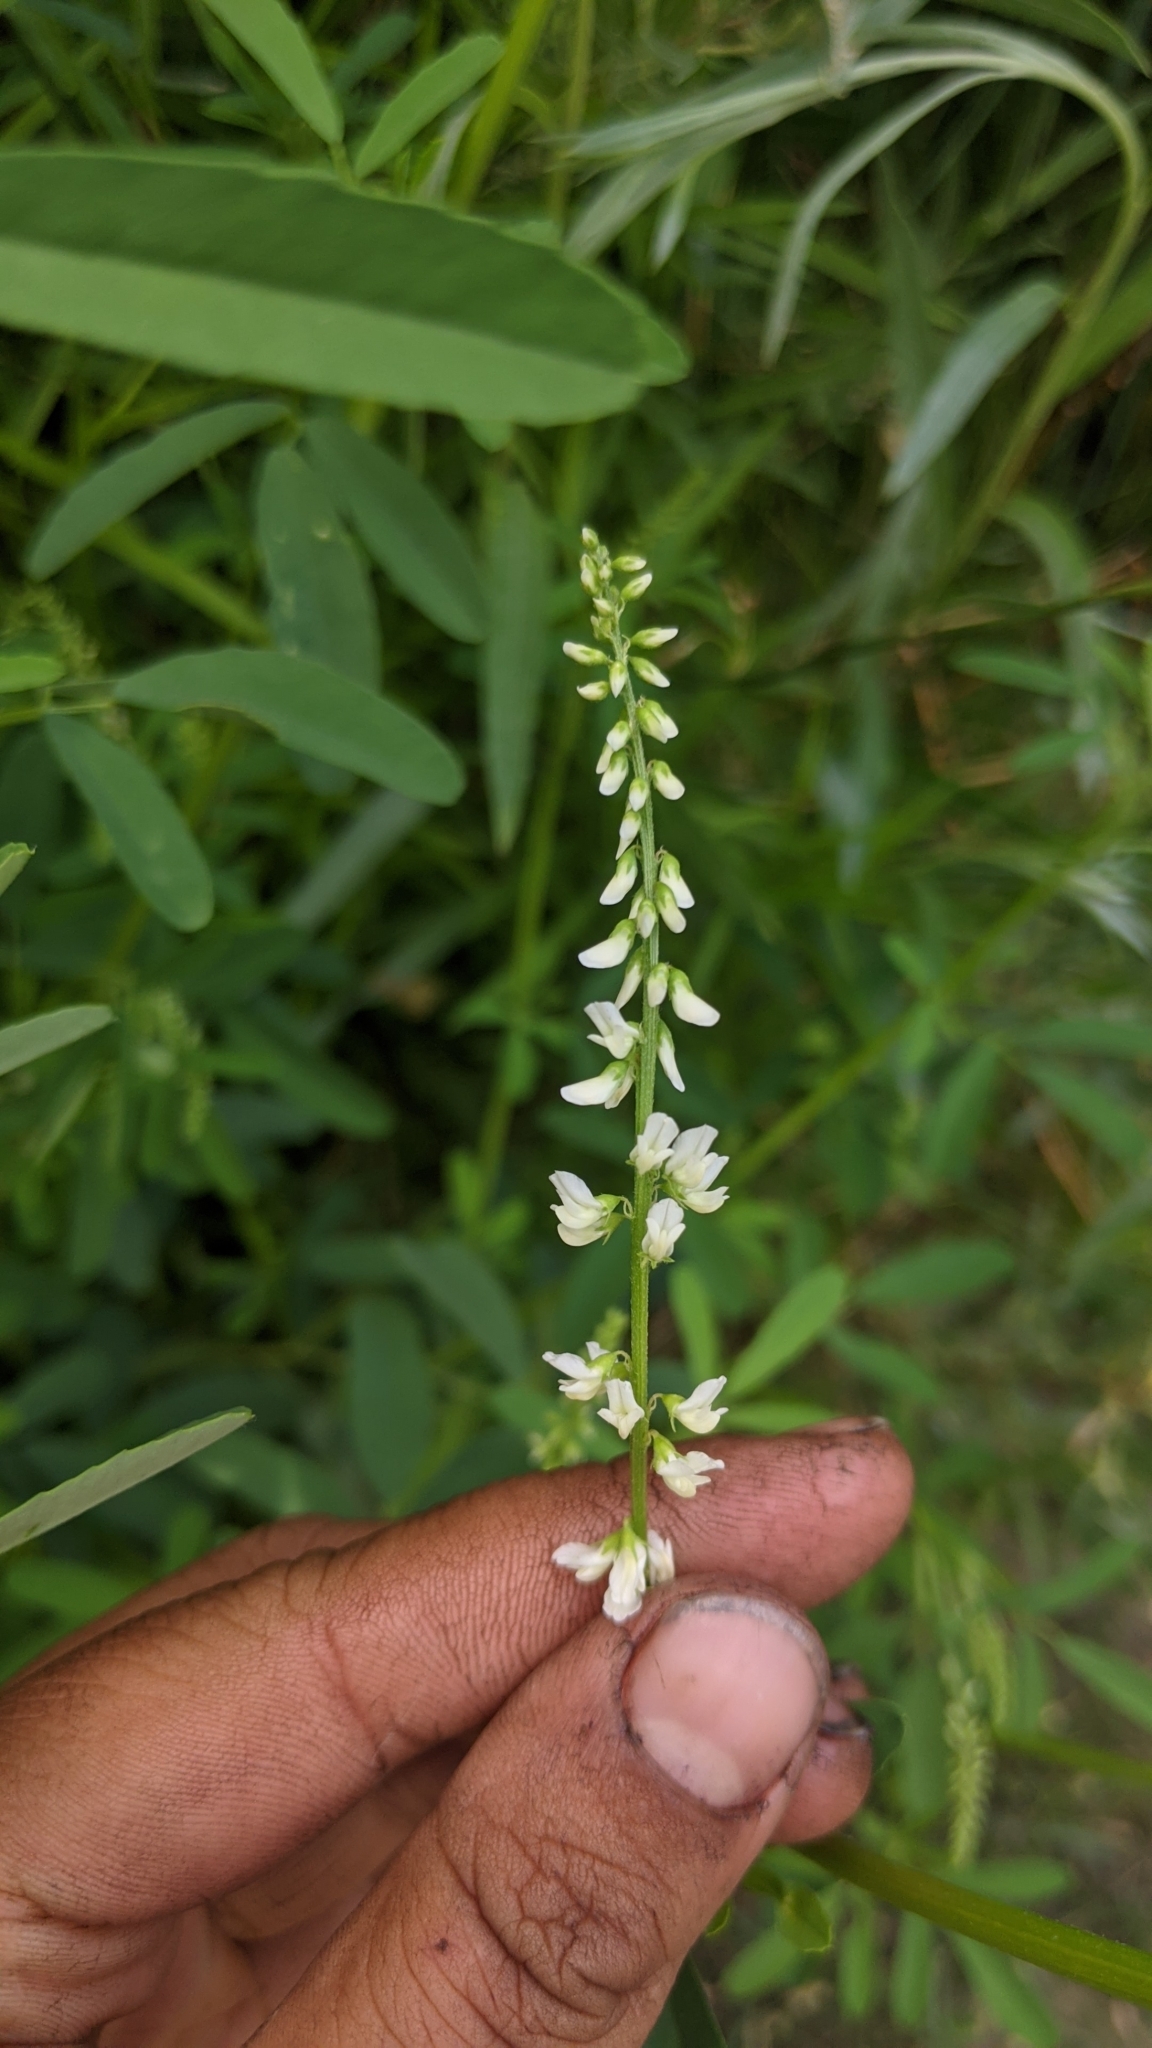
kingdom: Plantae
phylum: Tracheophyta
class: Magnoliopsida
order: Fabales
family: Fabaceae
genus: Melilotus
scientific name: Melilotus albus
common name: White melilot
